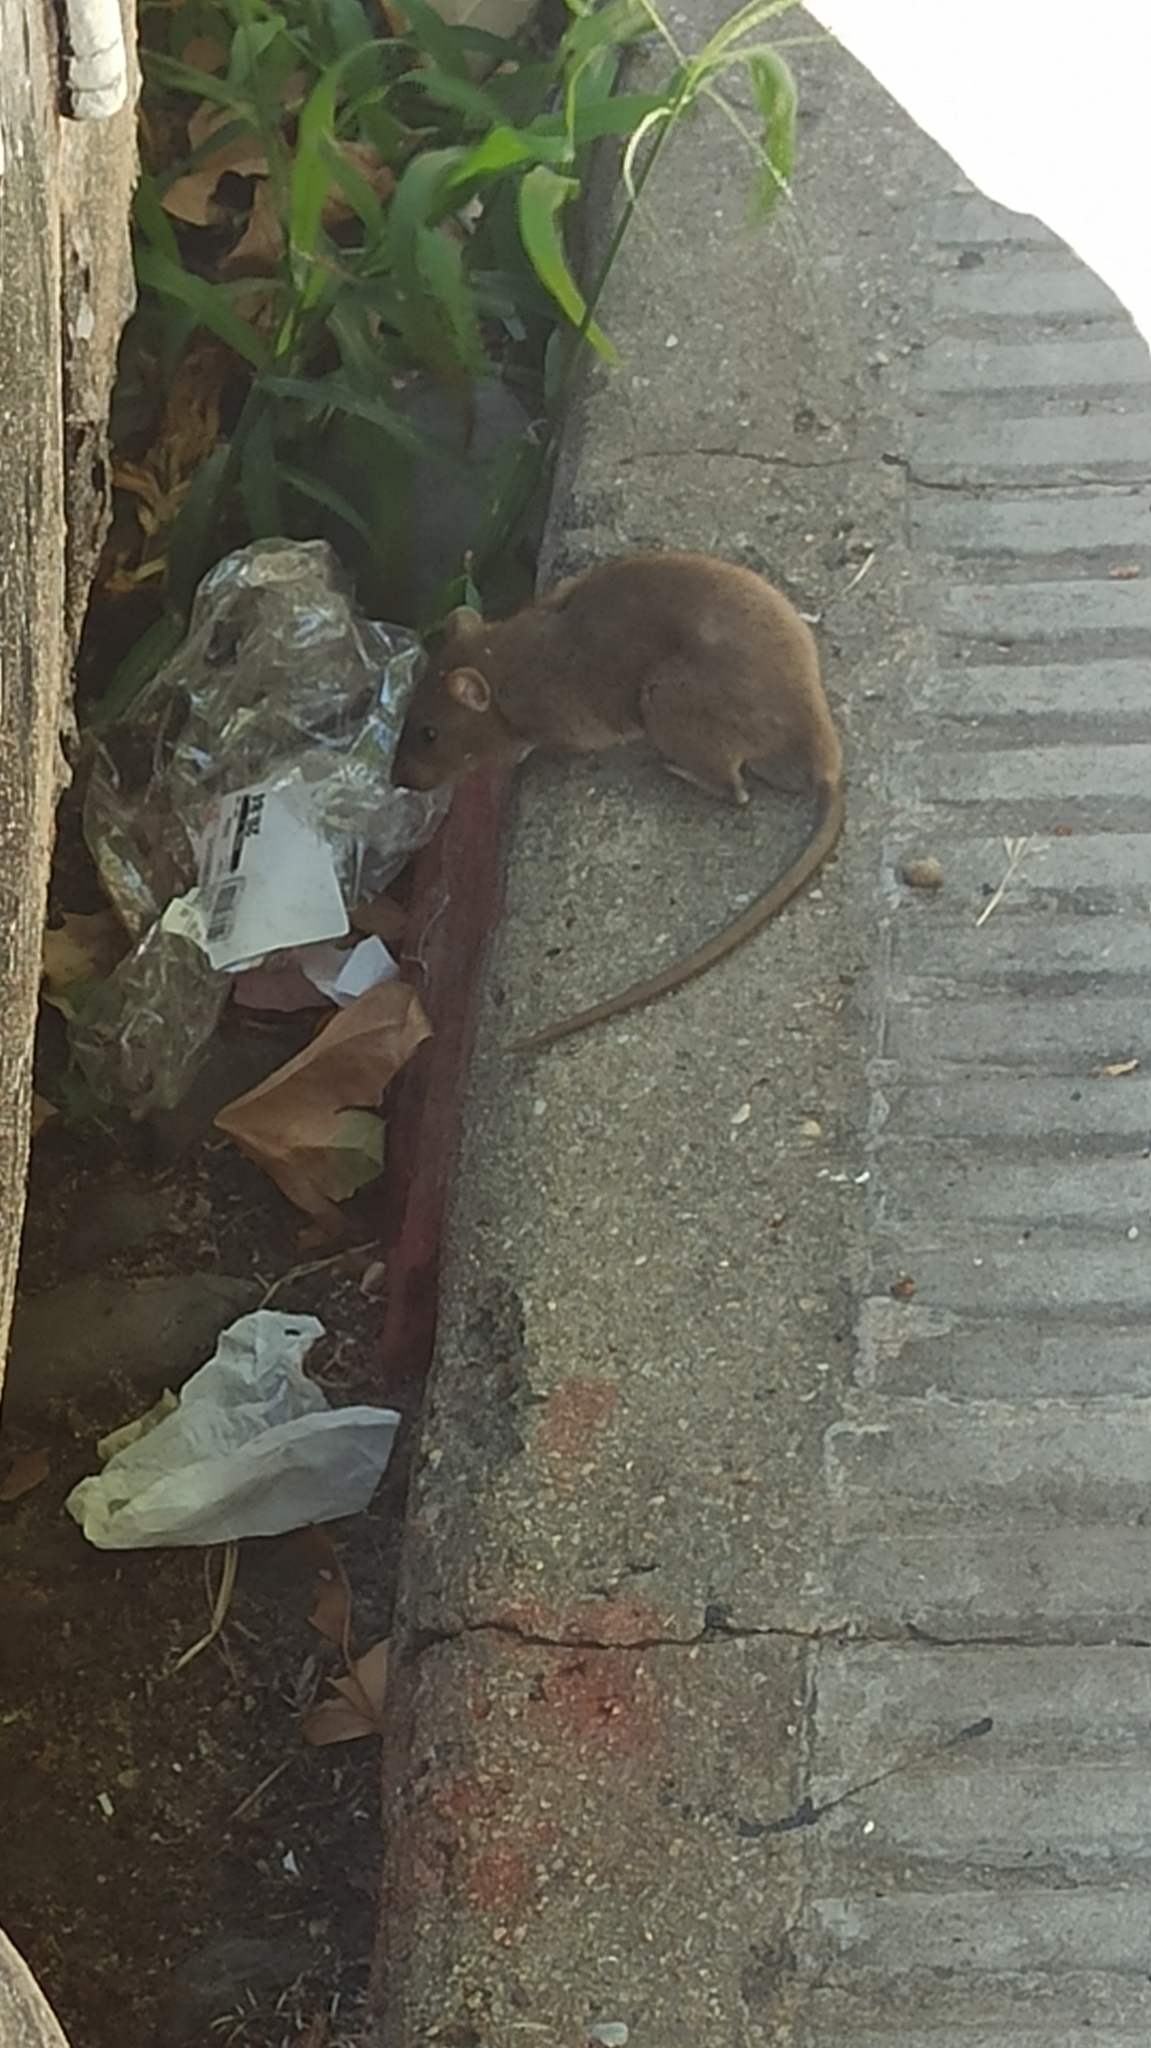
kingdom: Animalia
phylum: Chordata
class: Mammalia
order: Rodentia
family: Muridae
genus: Rattus
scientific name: Rattus norvegicus
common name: Brown rat
